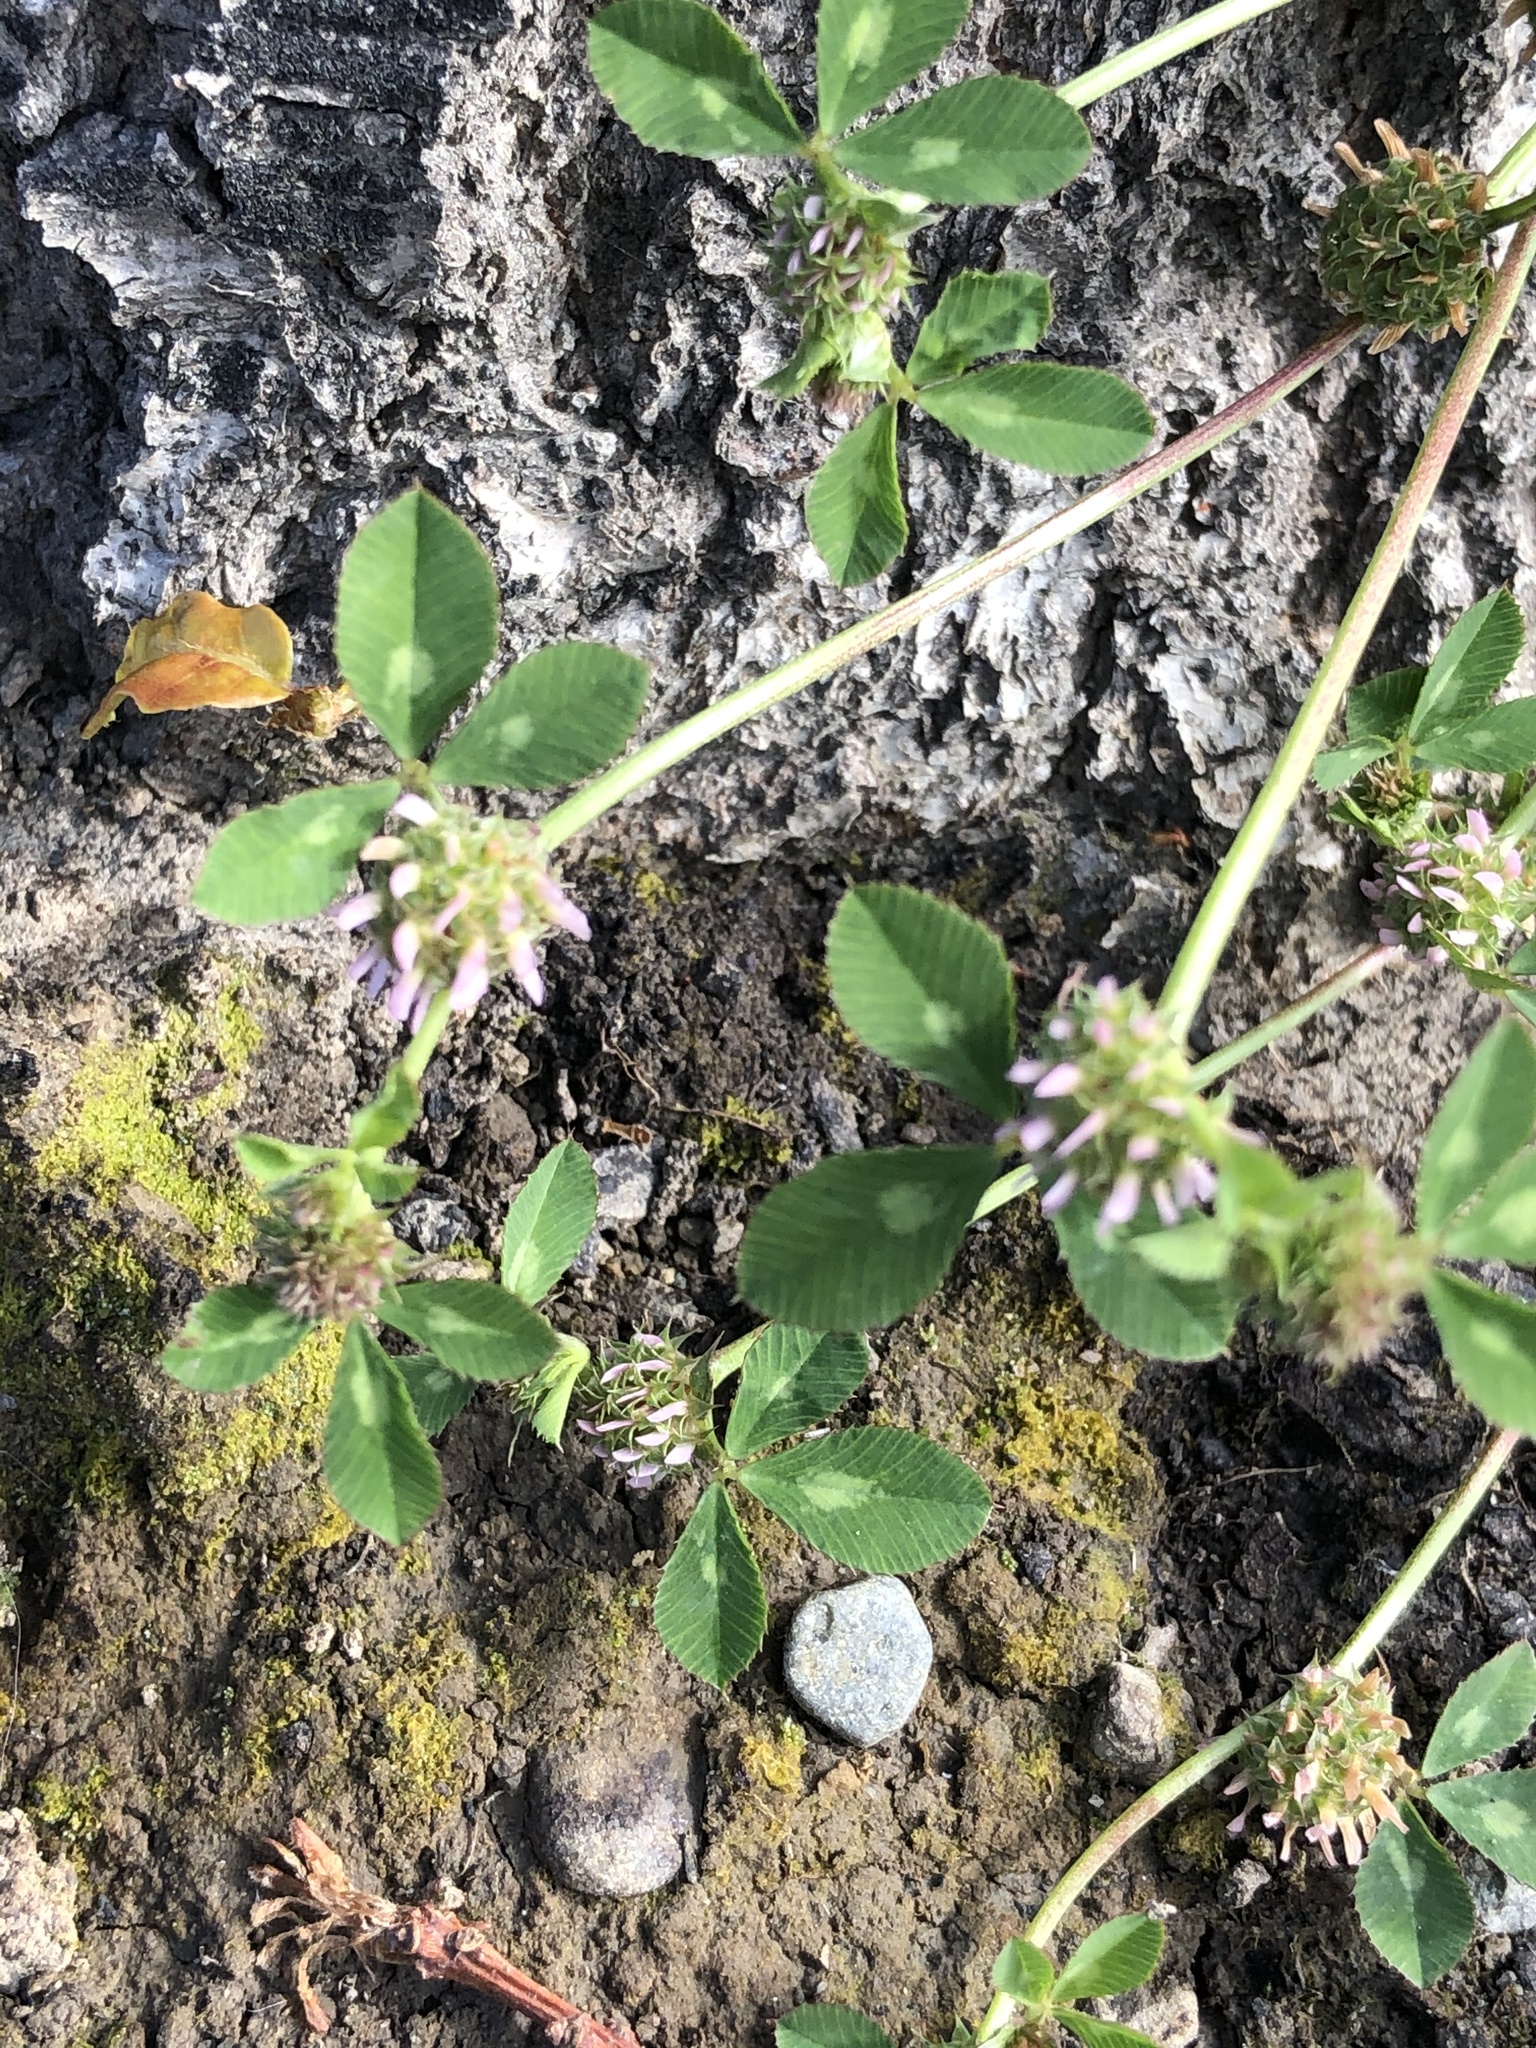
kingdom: Plantae
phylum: Tracheophyta
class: Magnoliopsida
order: Fabales
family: Fabaceae
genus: Trifolium
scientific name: Trifolium glomeratum
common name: Clustered clover
